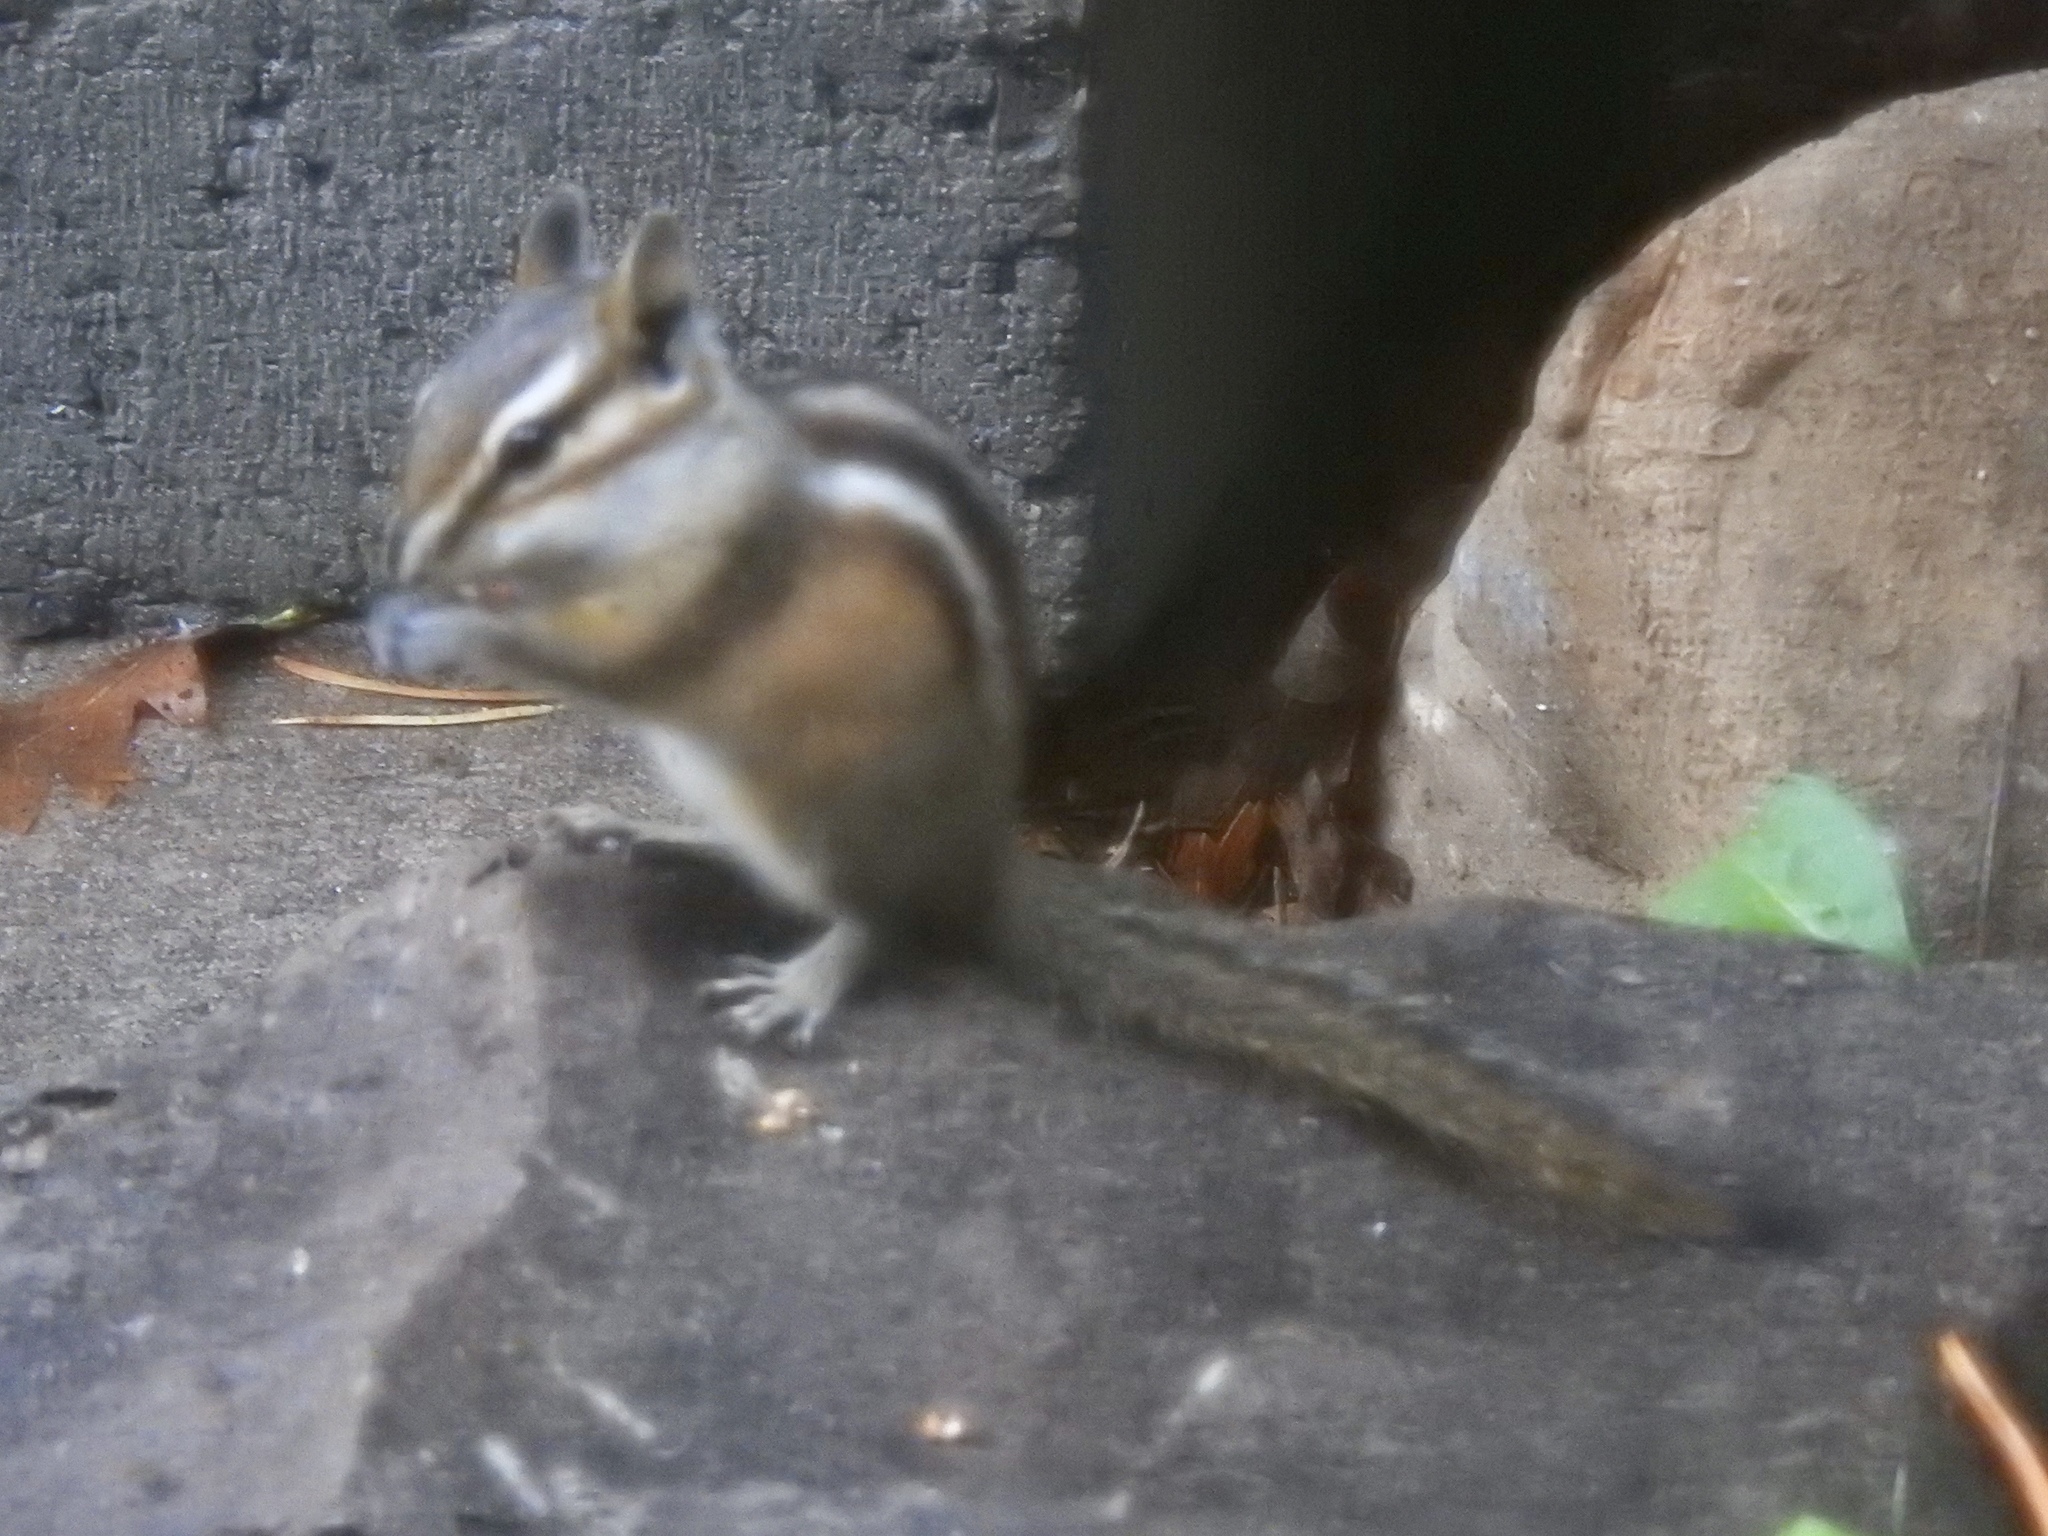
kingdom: Animalia
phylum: Chordata
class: Mammalia
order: Rodentia
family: Sciuridae
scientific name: Sciuridae
